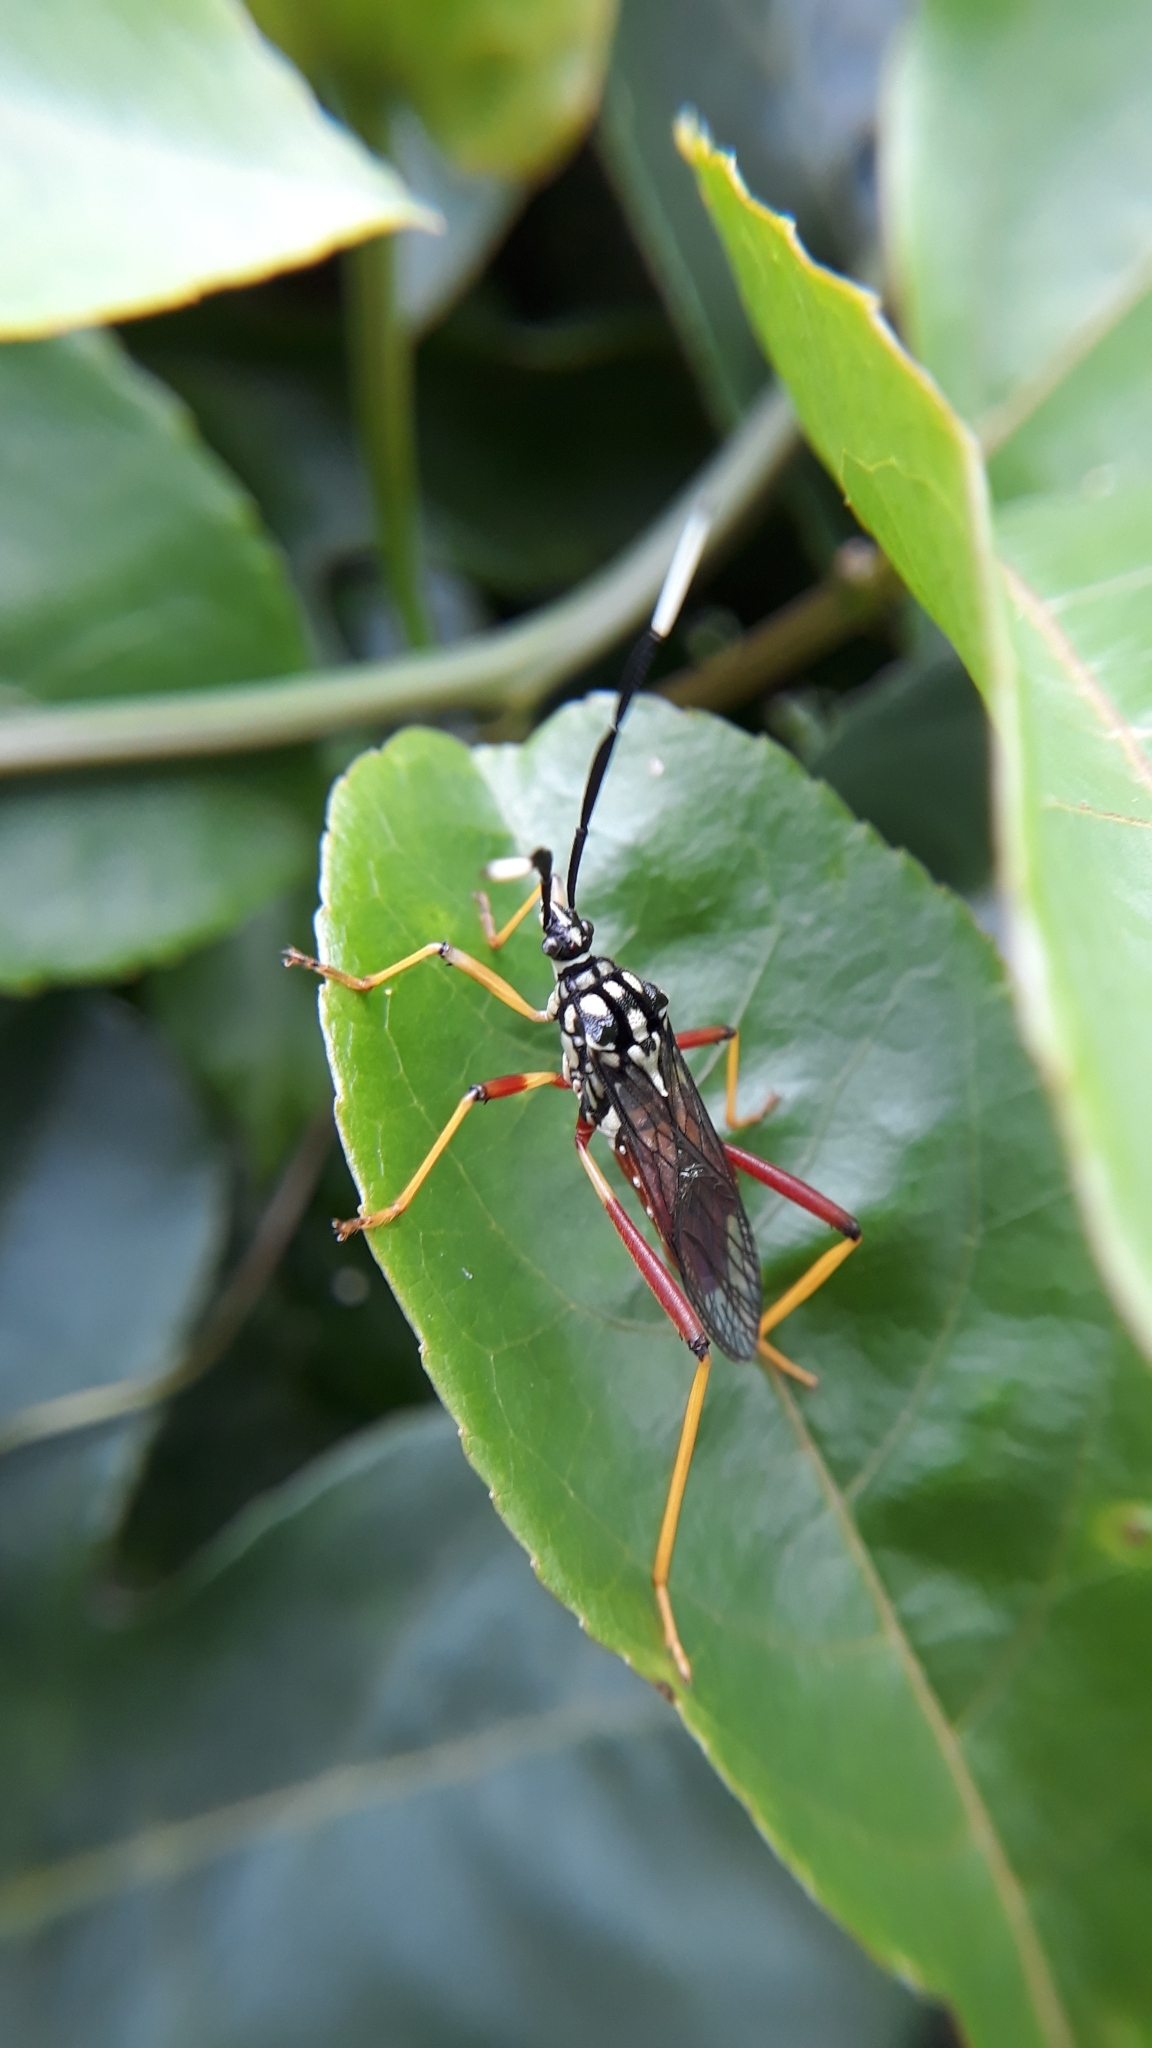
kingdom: Animalia
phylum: Arthropoda
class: Insecta
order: Hemiptera
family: Coreidae
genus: Holhymenia
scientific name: Holhymenia histrio
